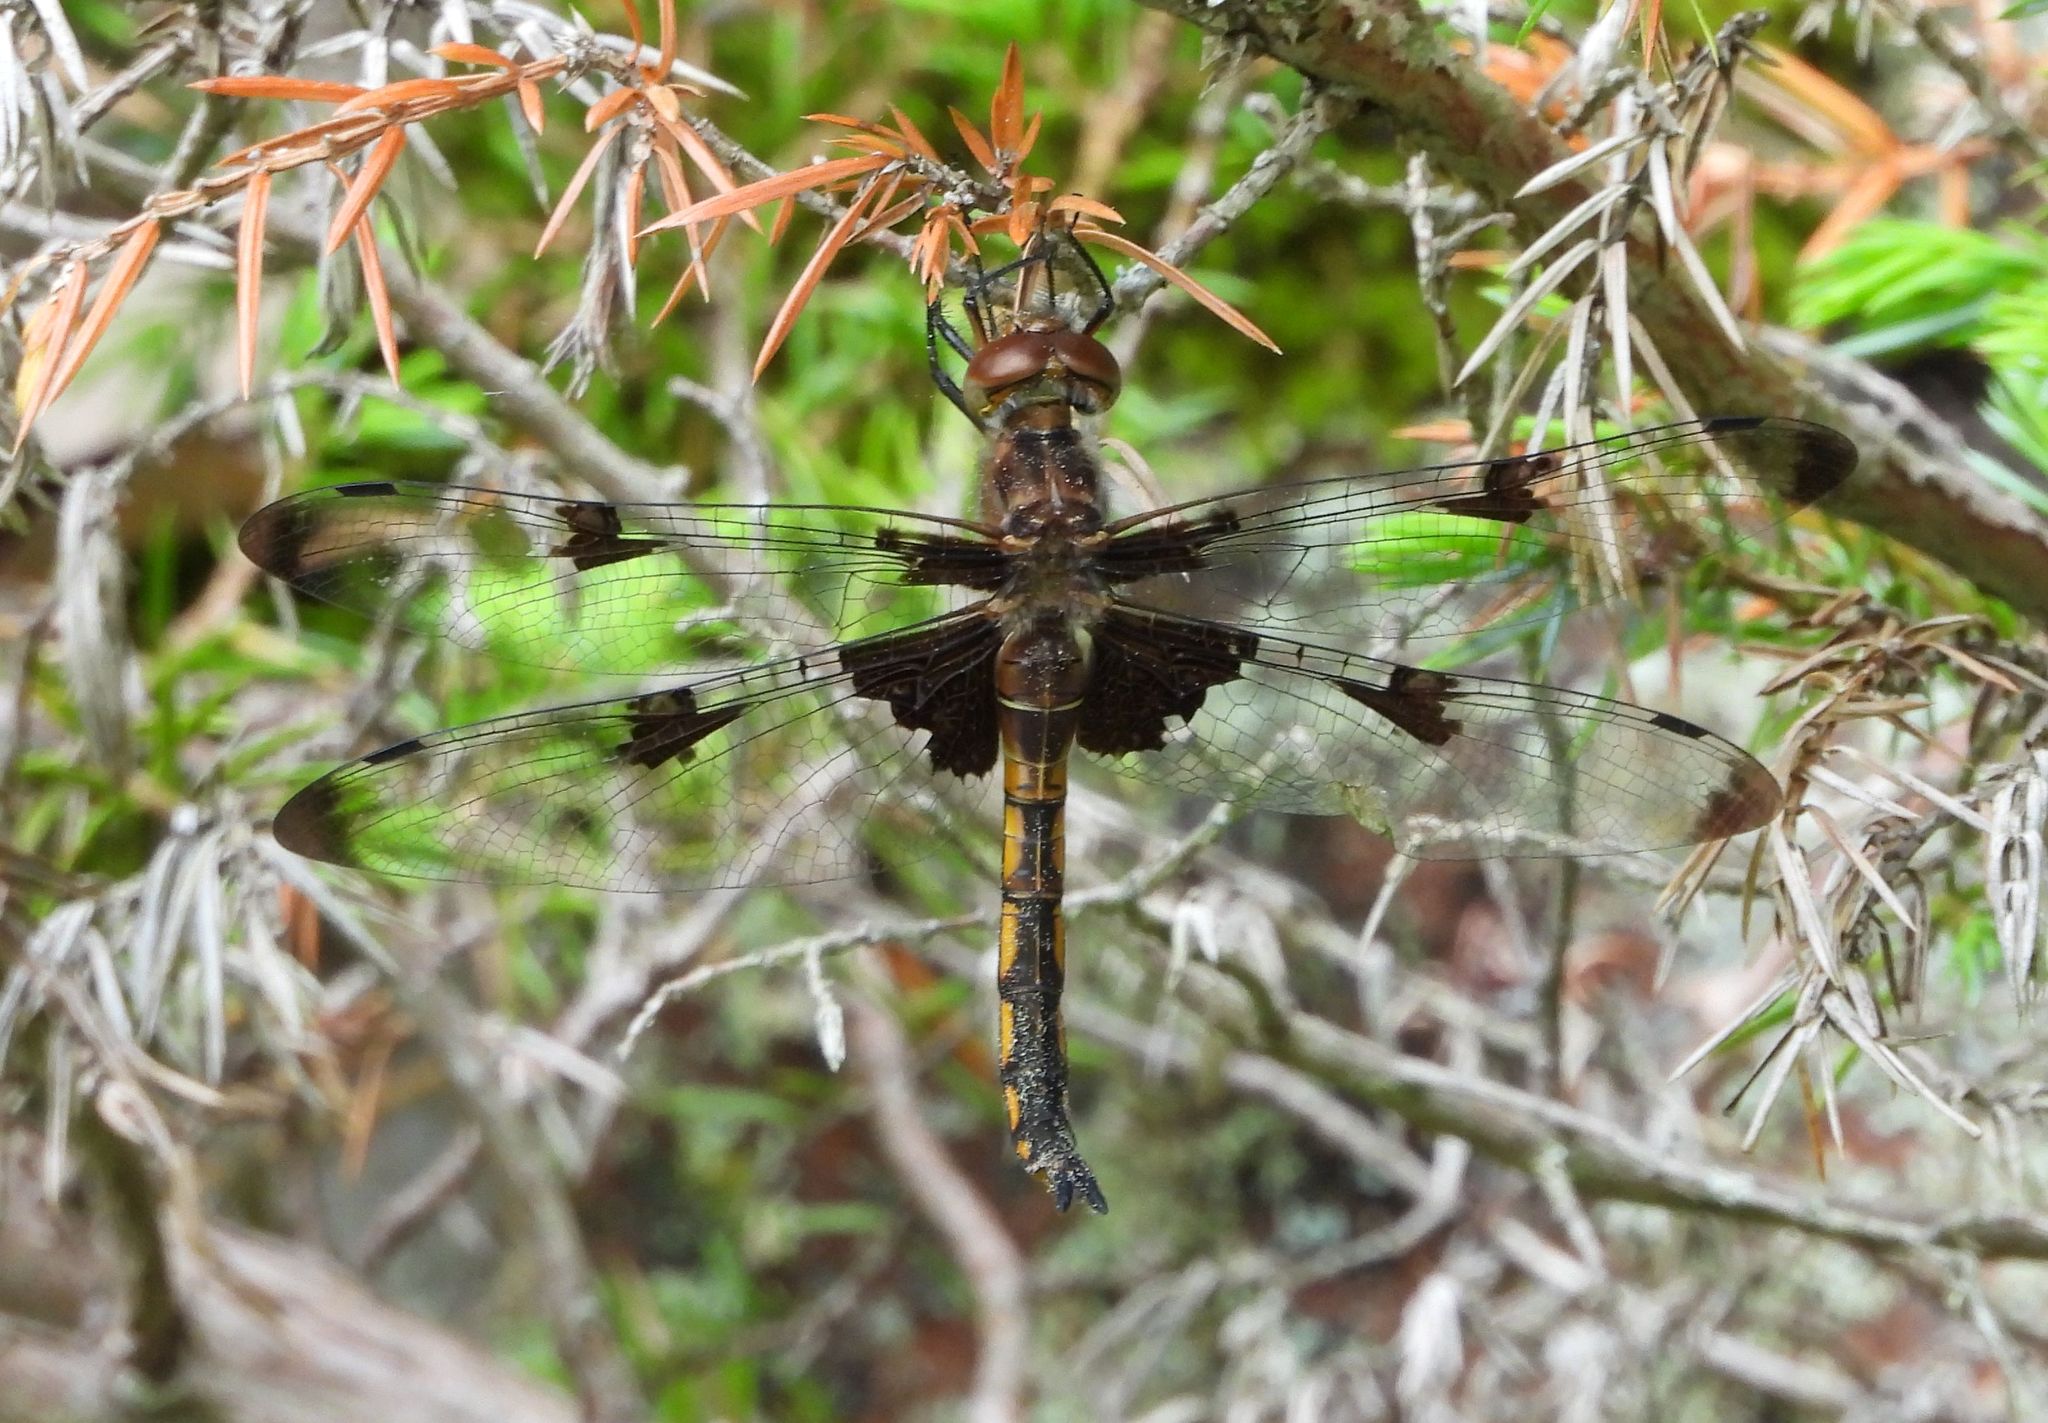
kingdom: Animalia
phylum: Arthropoda
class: Insecta
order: Odonata
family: Corduliidae
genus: Epitheca
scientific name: Epitheca princeps
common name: Prince baskettail
